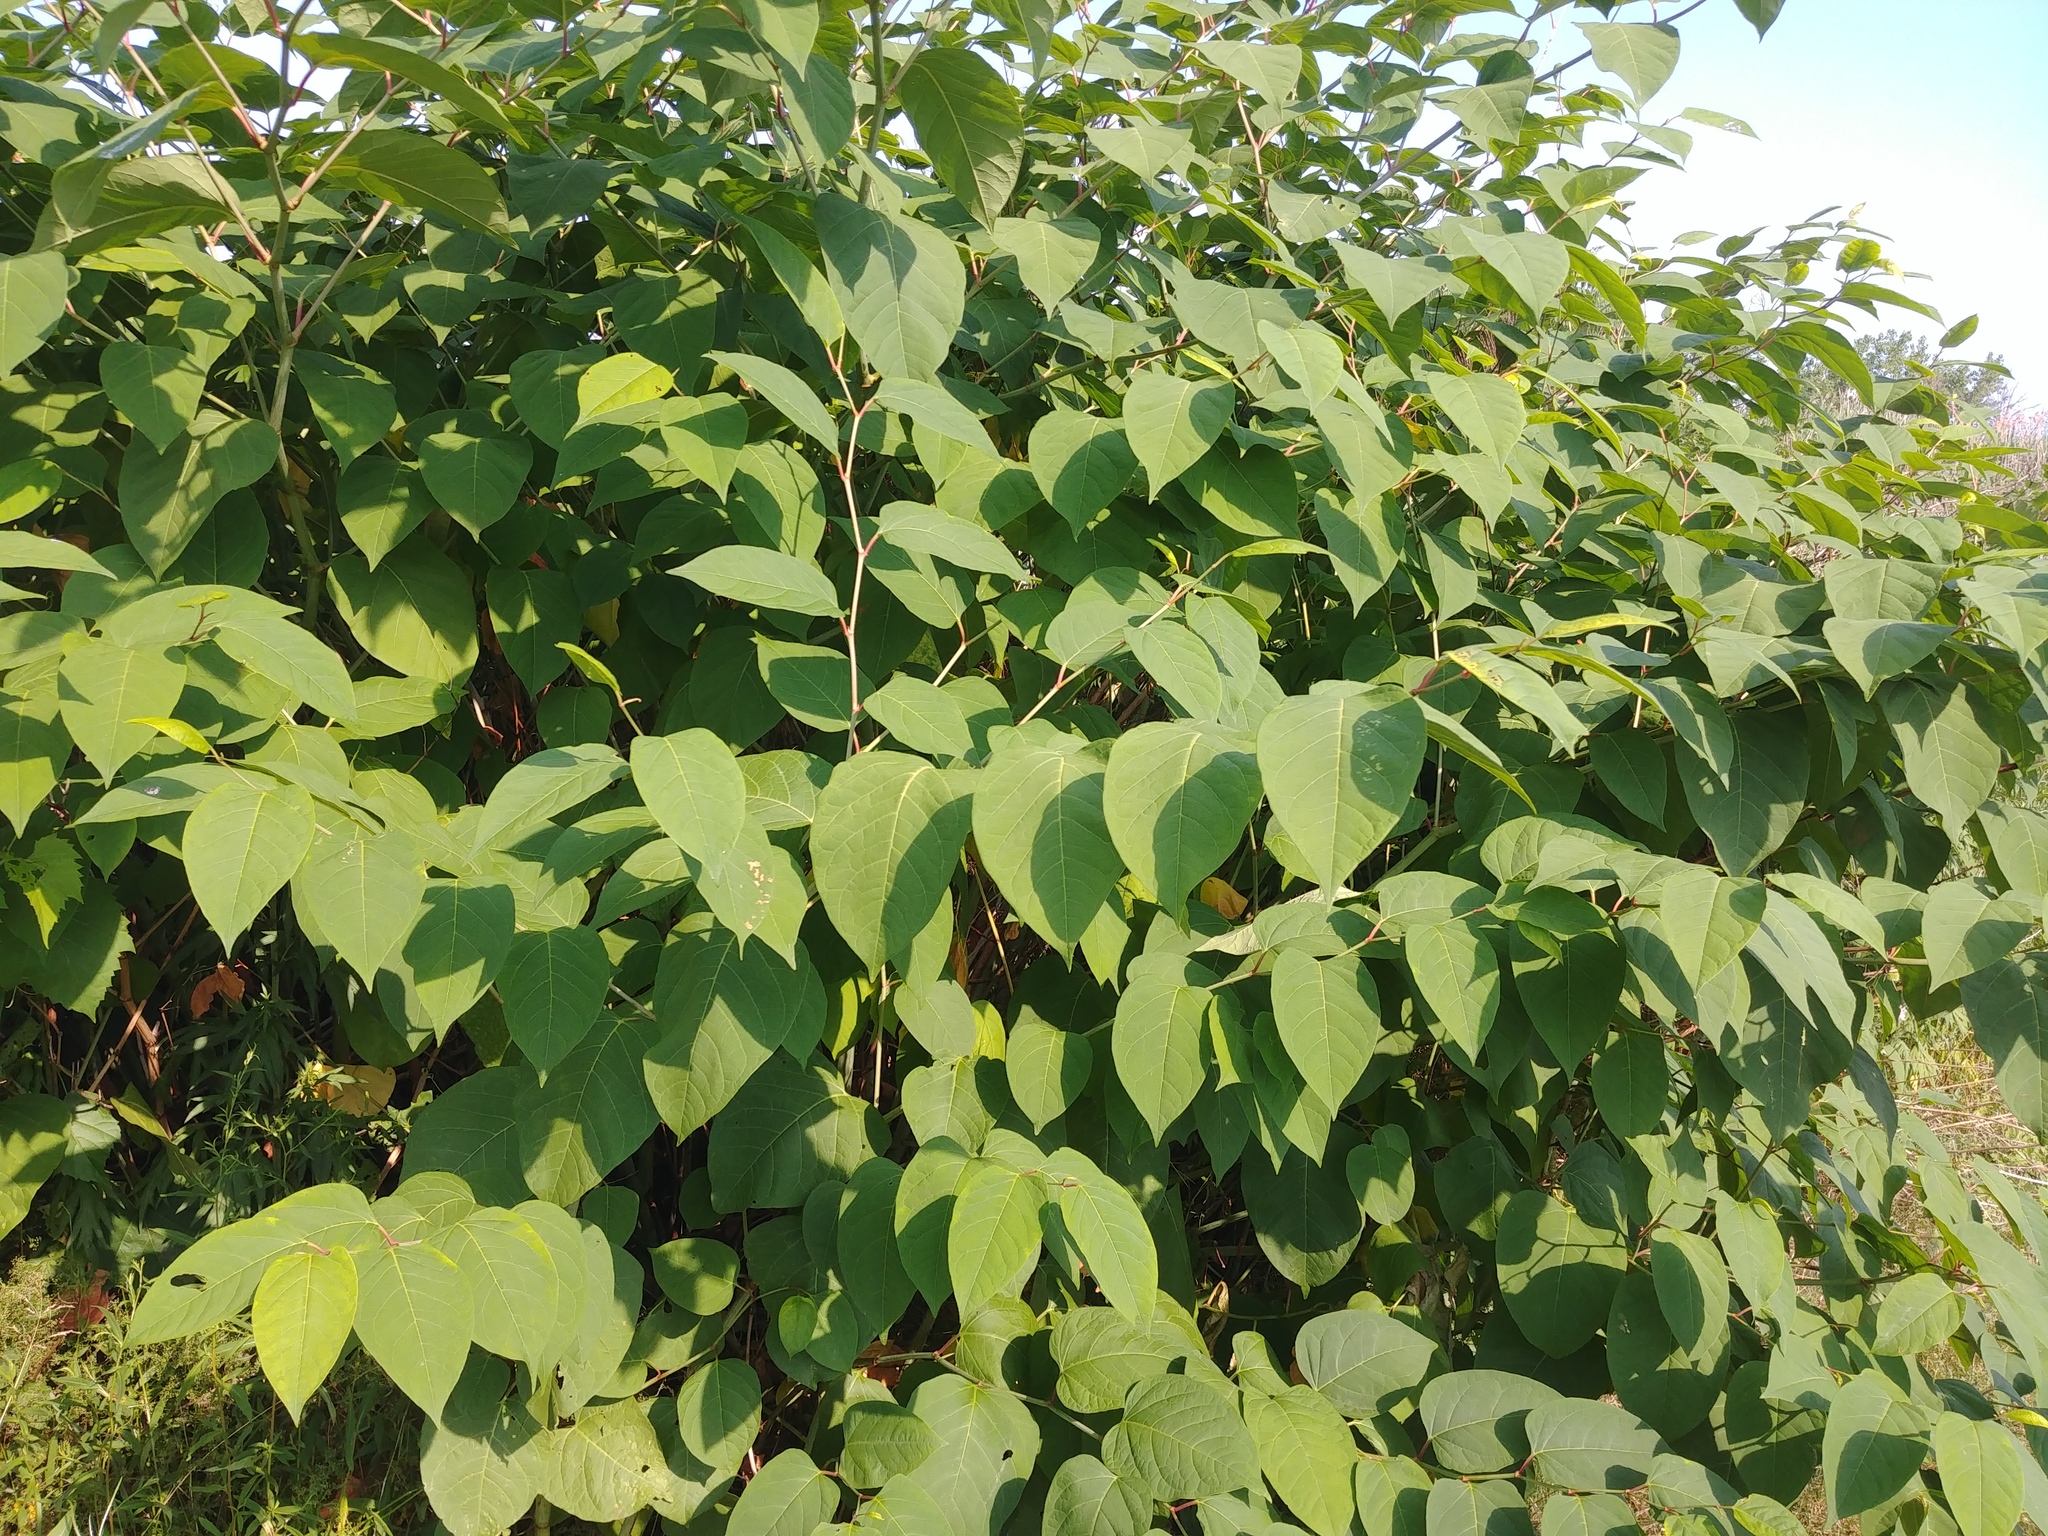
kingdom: Plantae
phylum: Tracheophyta
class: Magnoliopsida
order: Caryophyllales
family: Polygonaceae
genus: Reynoutria
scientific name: Reynoutria japonica
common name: Japanese knotweed
